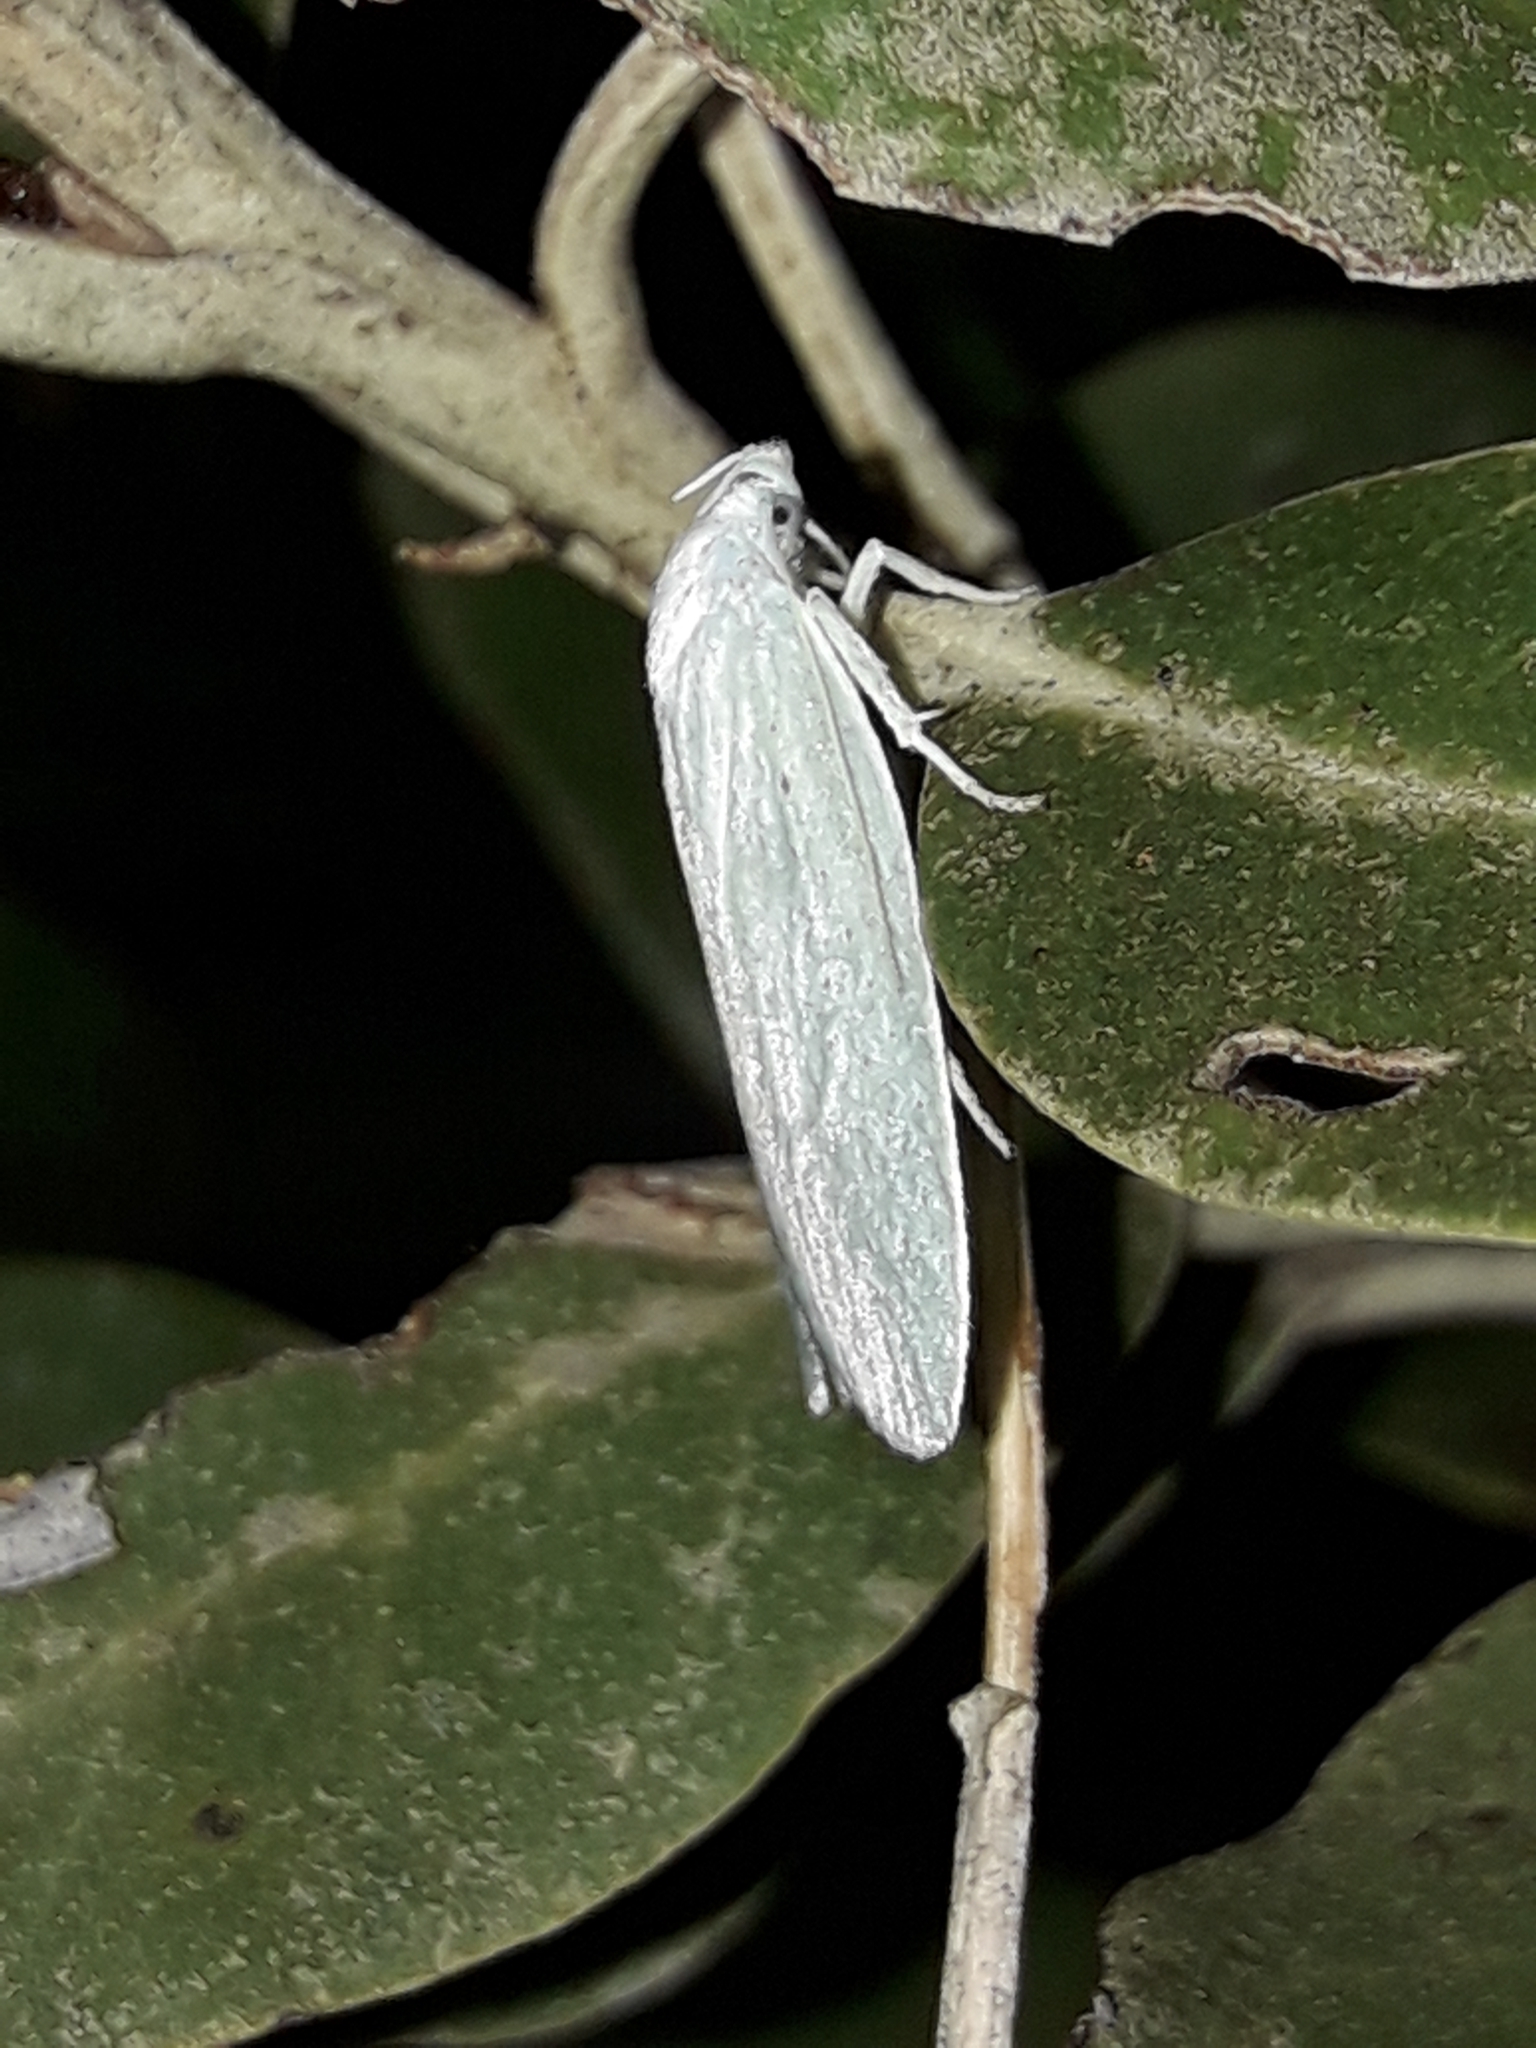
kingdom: Animalia
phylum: Arthropoda
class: Insecta
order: Lepidoptera
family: Oecophoridae
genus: Nymphostola
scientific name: Nymphostola galactina
